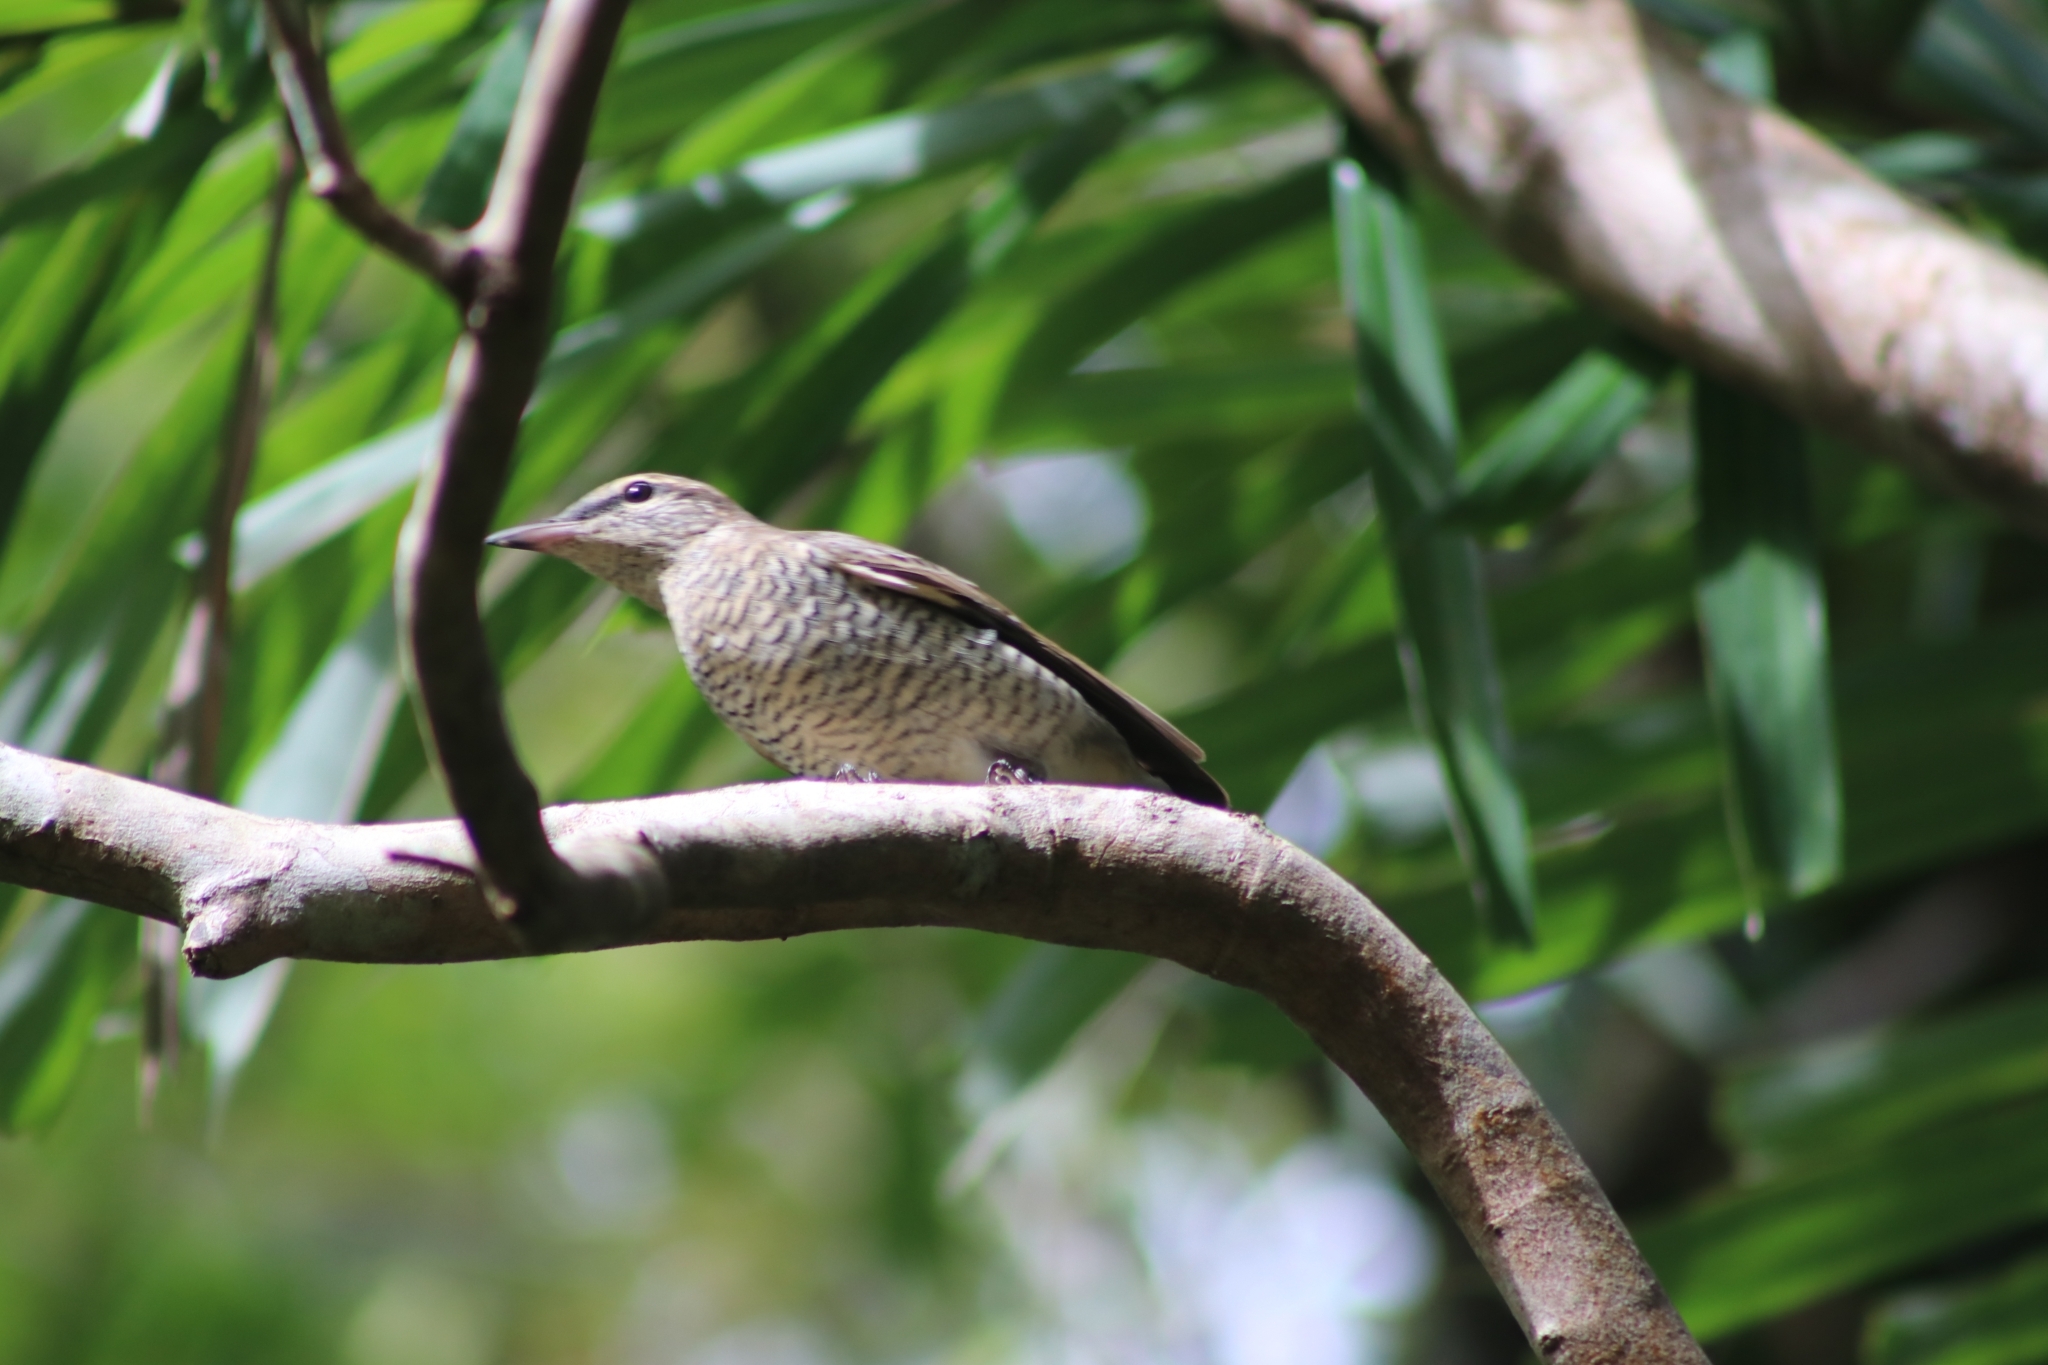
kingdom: Animalia
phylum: Chordata
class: Aves
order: Passeriformes
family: Campephagidae
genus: Edolisoma
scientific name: Edolisoma tenuirostre
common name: Common cicadabird
